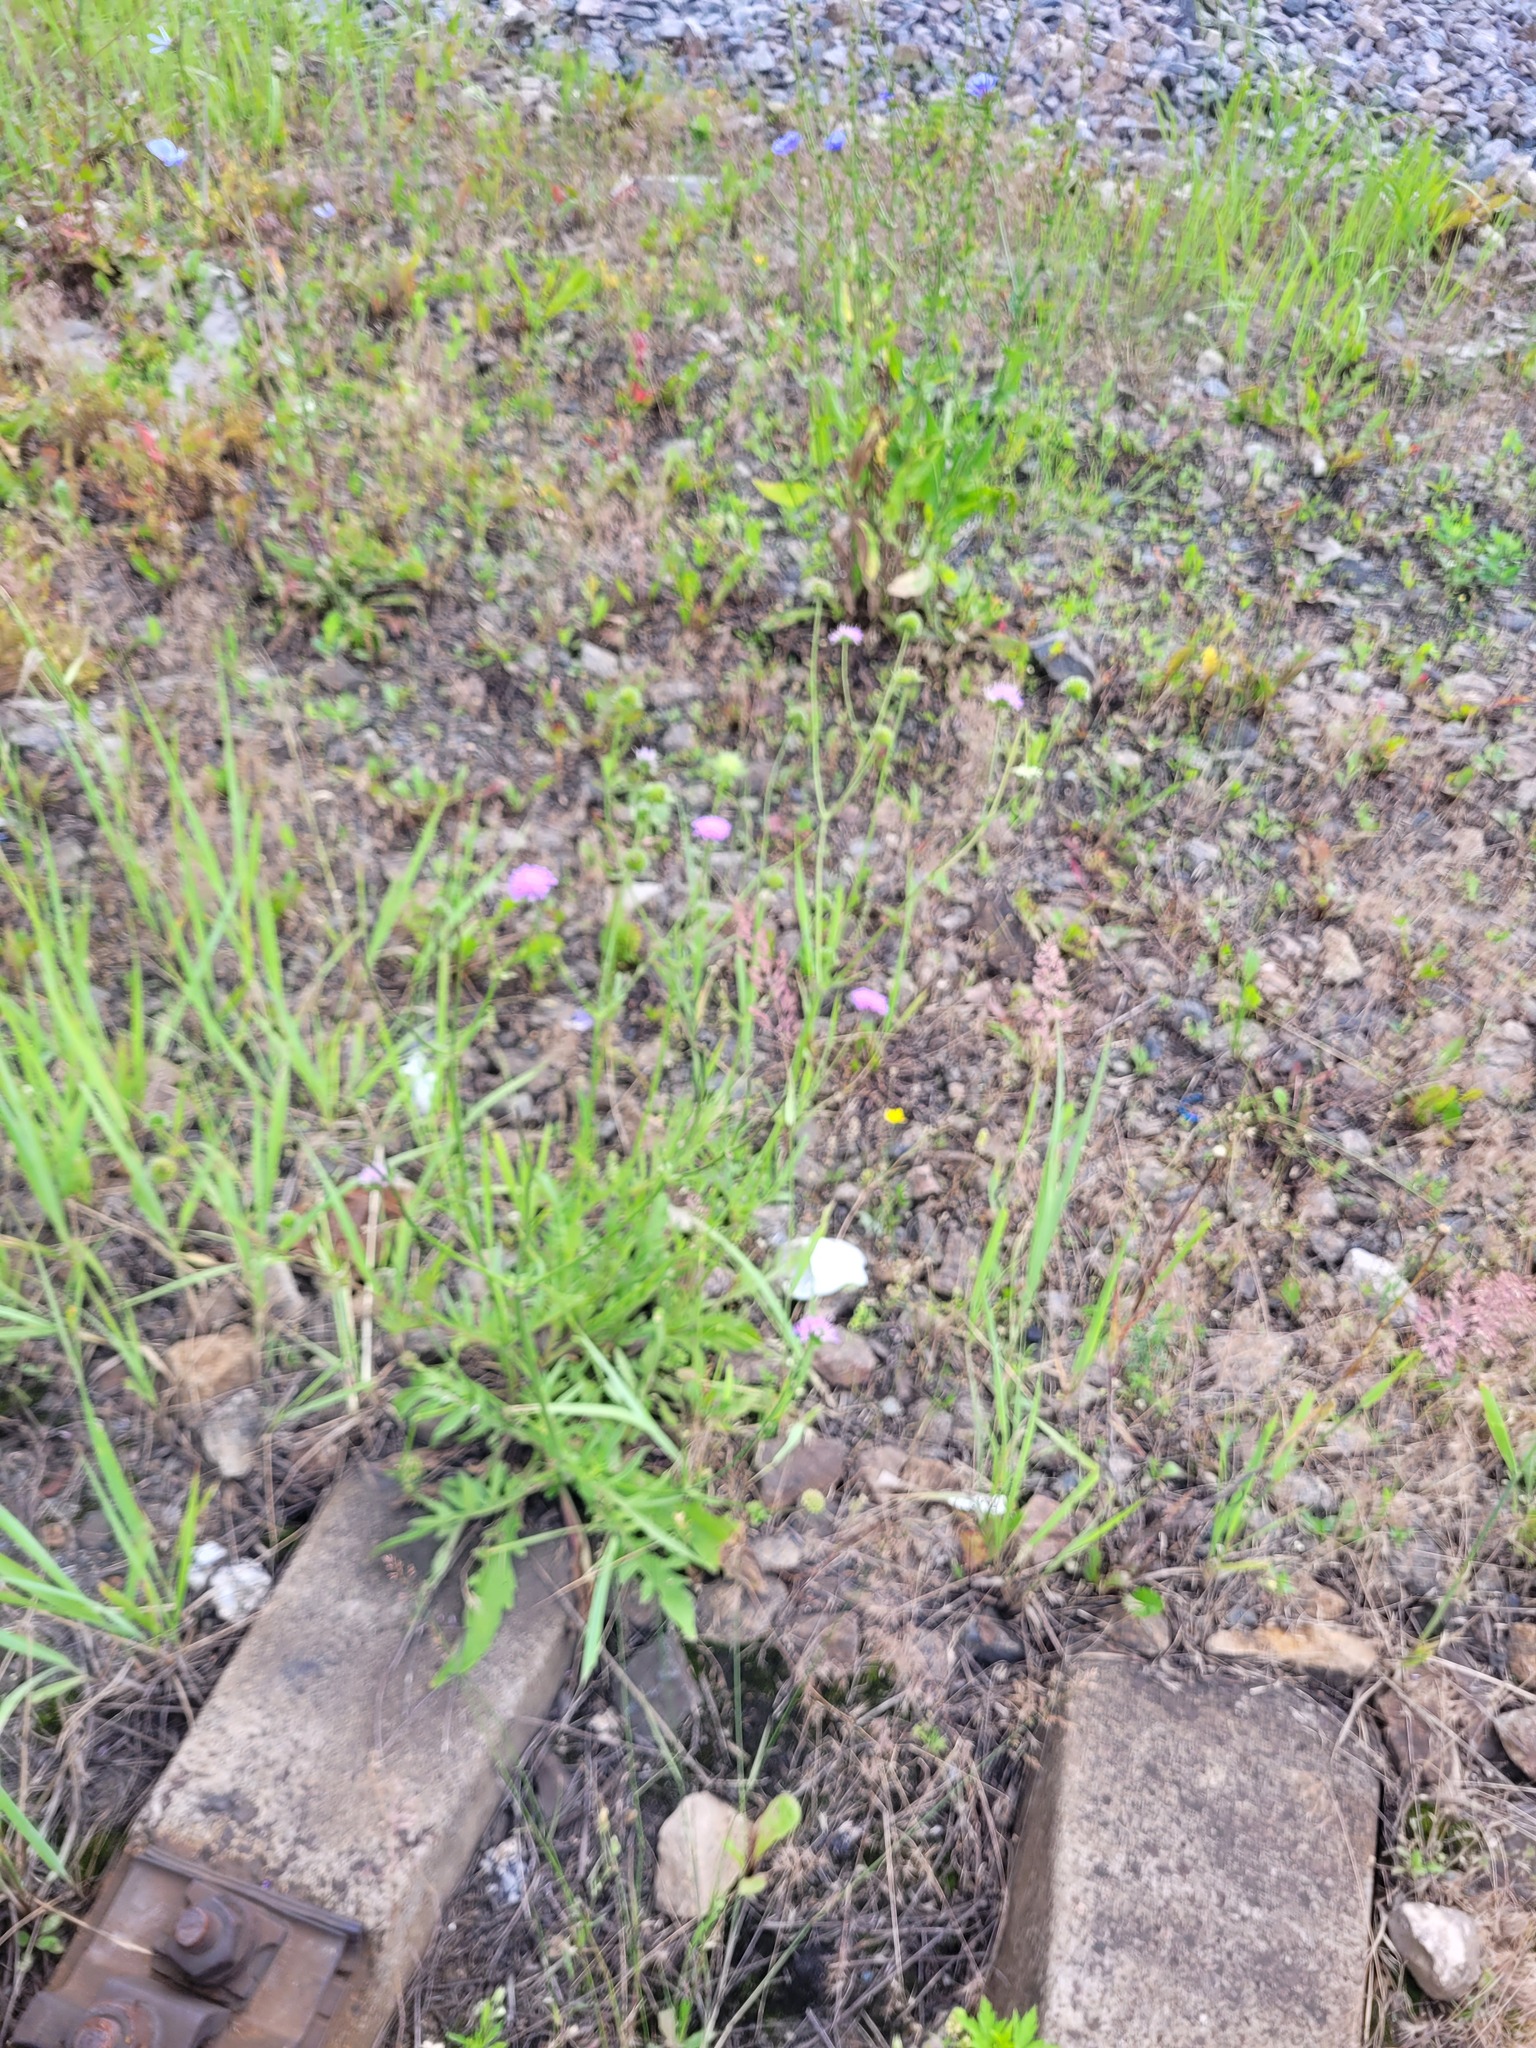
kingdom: Plantae
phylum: Tracheophyta
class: Magnoliopsida
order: Dipsacales
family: Caprifoliaceae
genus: Knautia
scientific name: Knautia arvensis
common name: Field scabiosa
